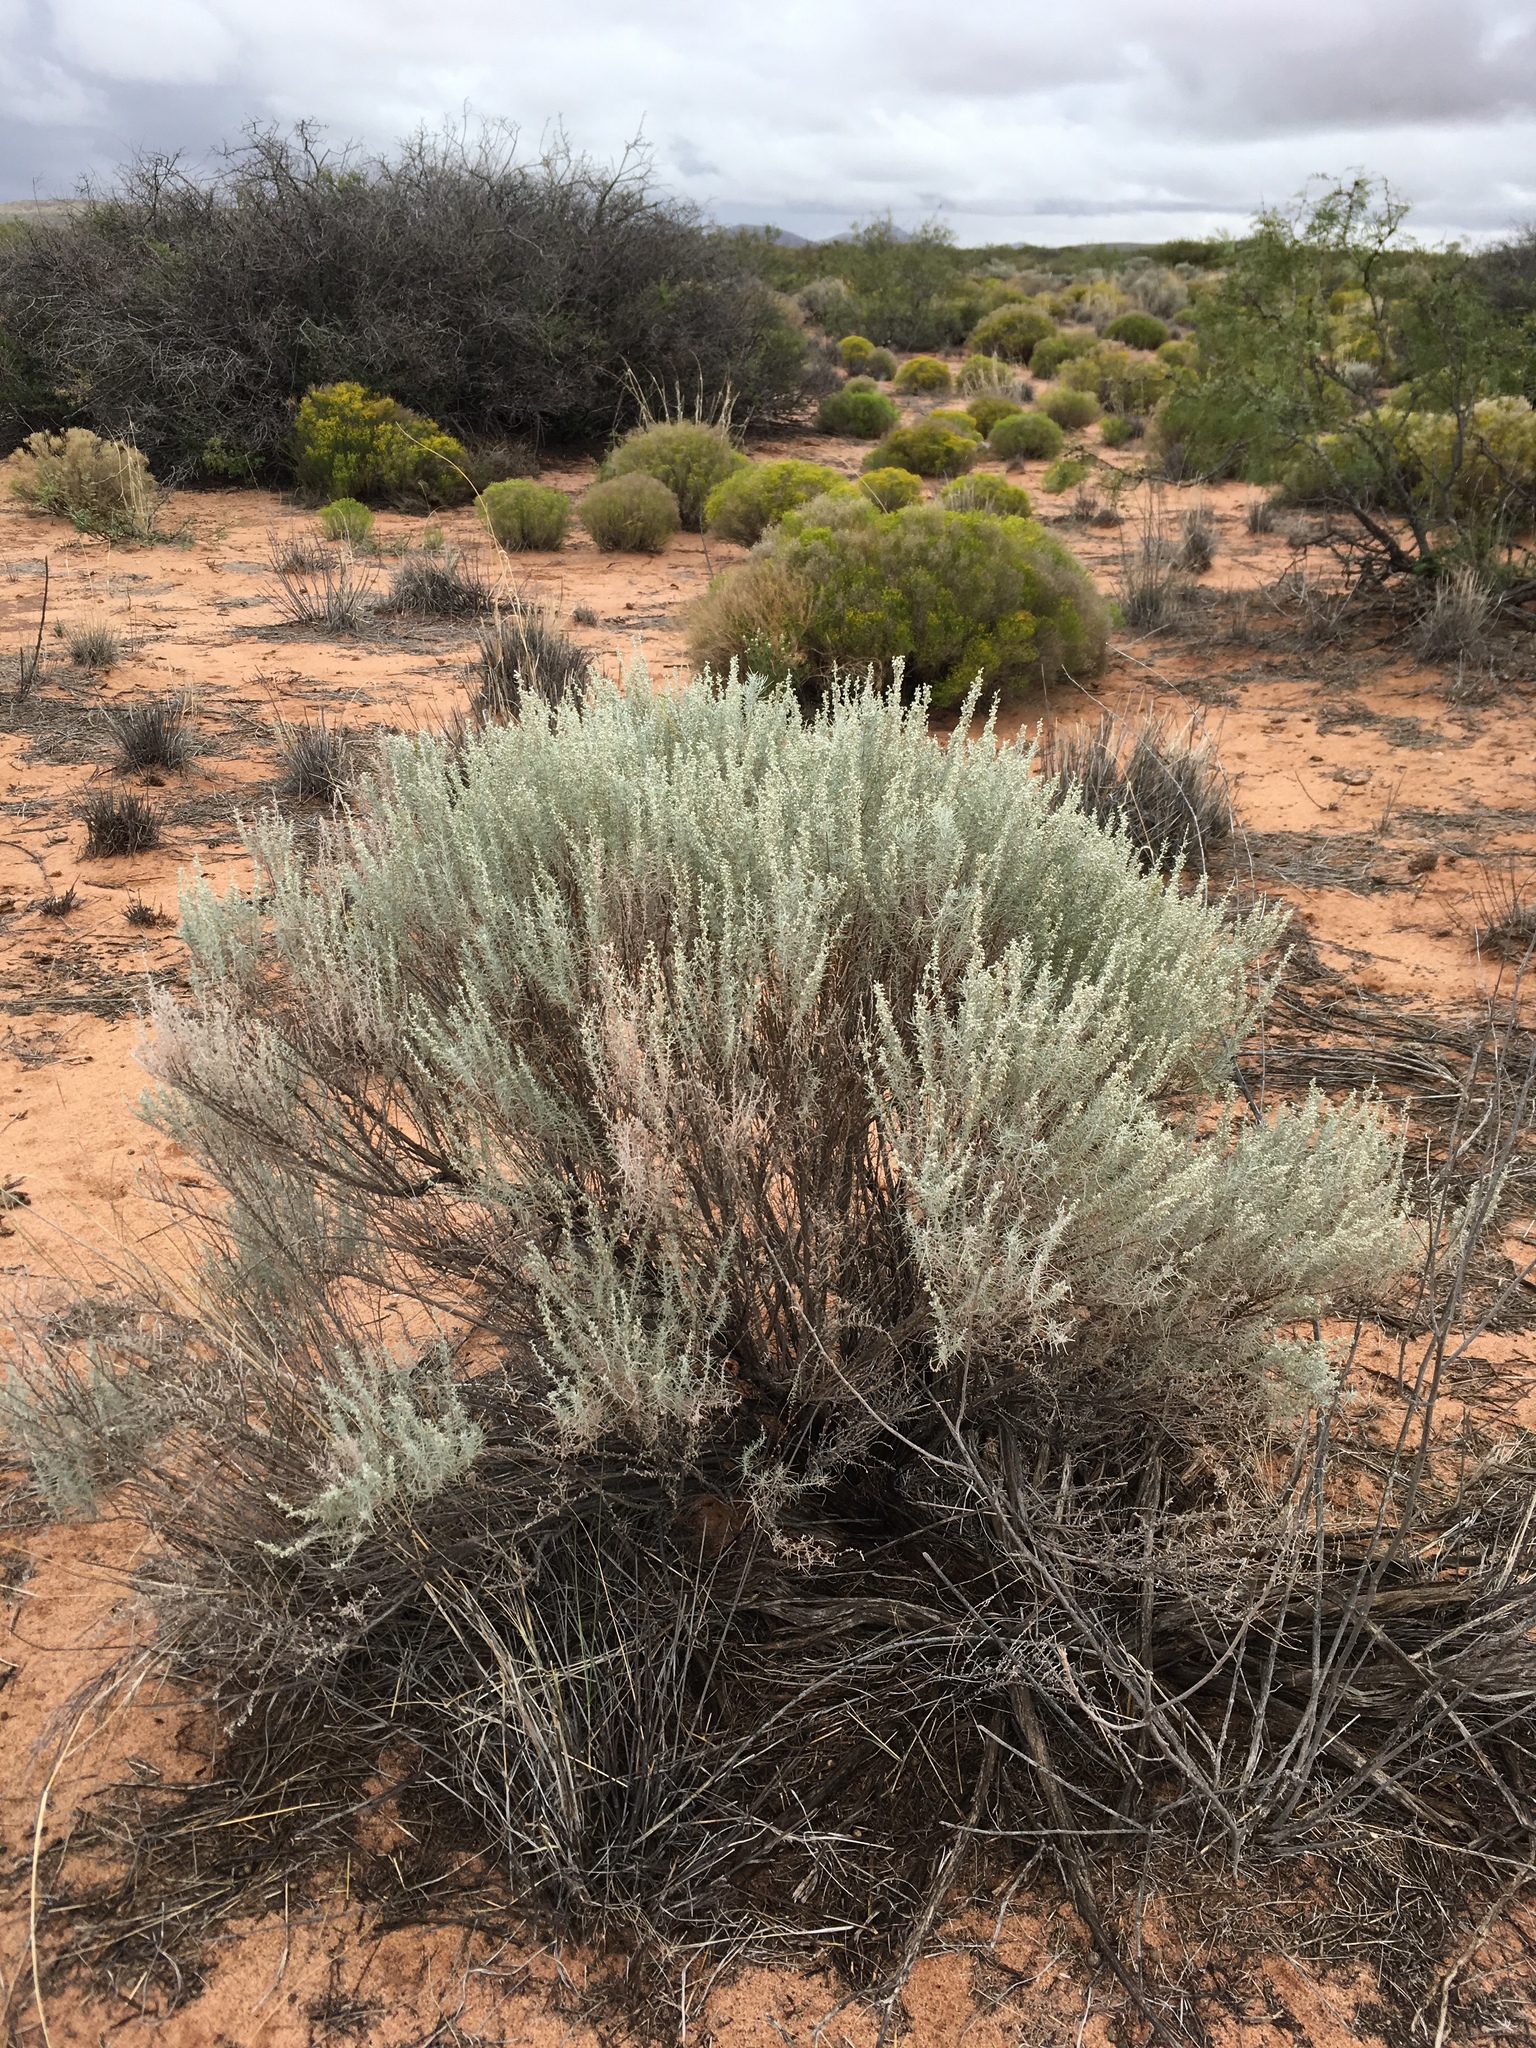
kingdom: Plantae
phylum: Tracheophyta
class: Magnoliopsida
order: Asterales
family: Asteraceae
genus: Artemisia
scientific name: Artemisia filifolia
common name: Sand-sage
